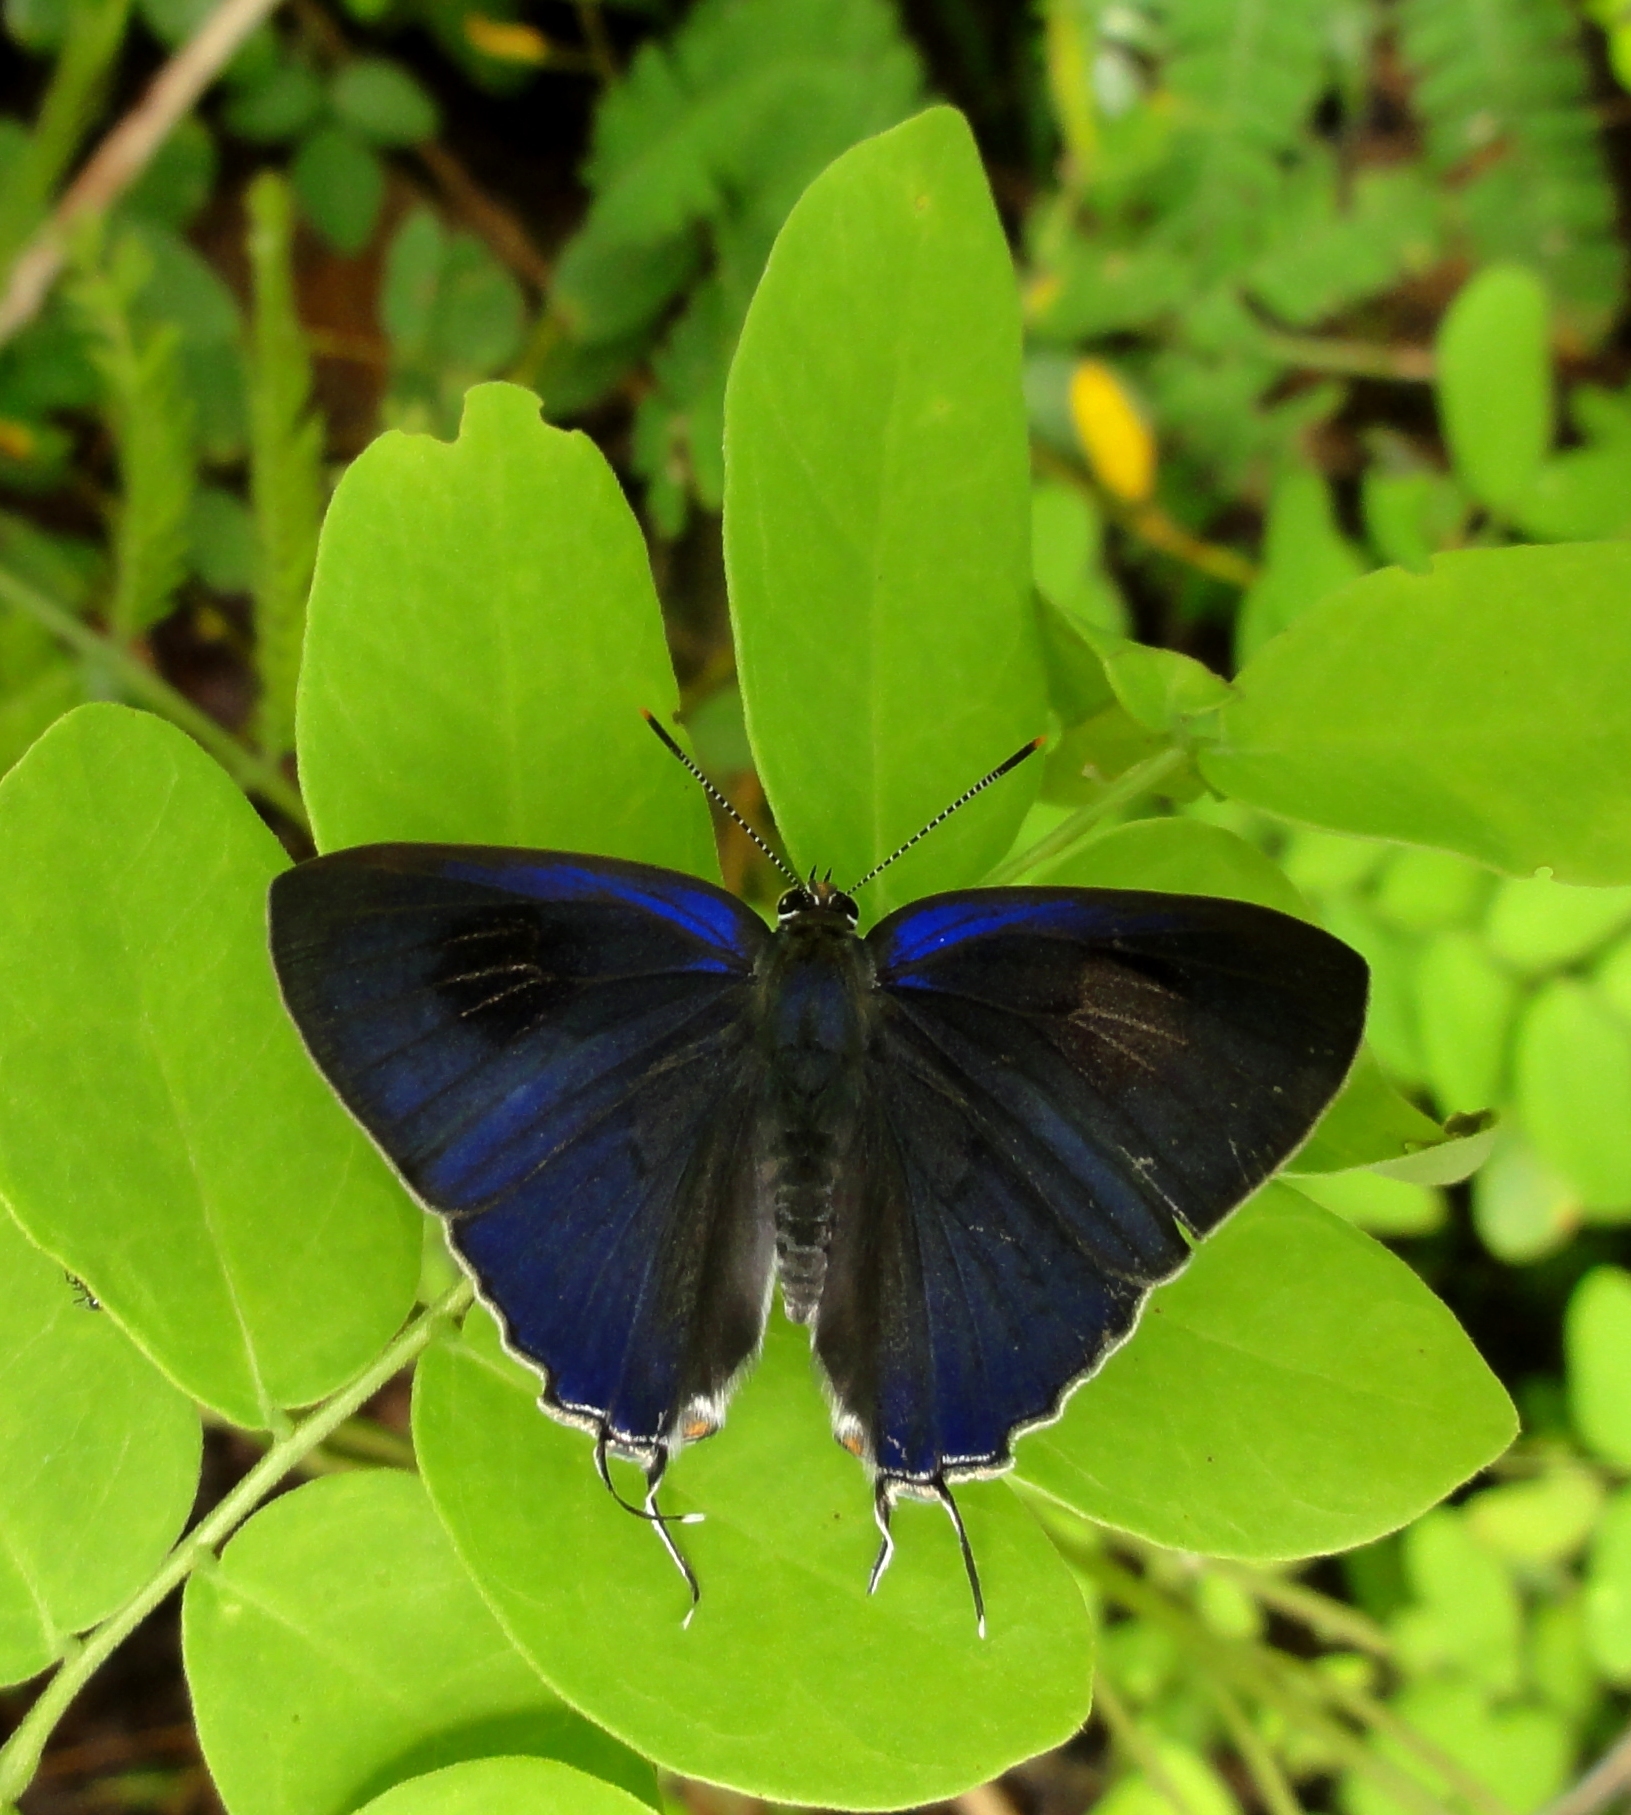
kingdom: Animalia
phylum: Arthropoda
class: Insecta
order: Lepidoptera
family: Lycaenidae
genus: Hypolycaena
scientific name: Hypolycaena erylus
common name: Common tit
